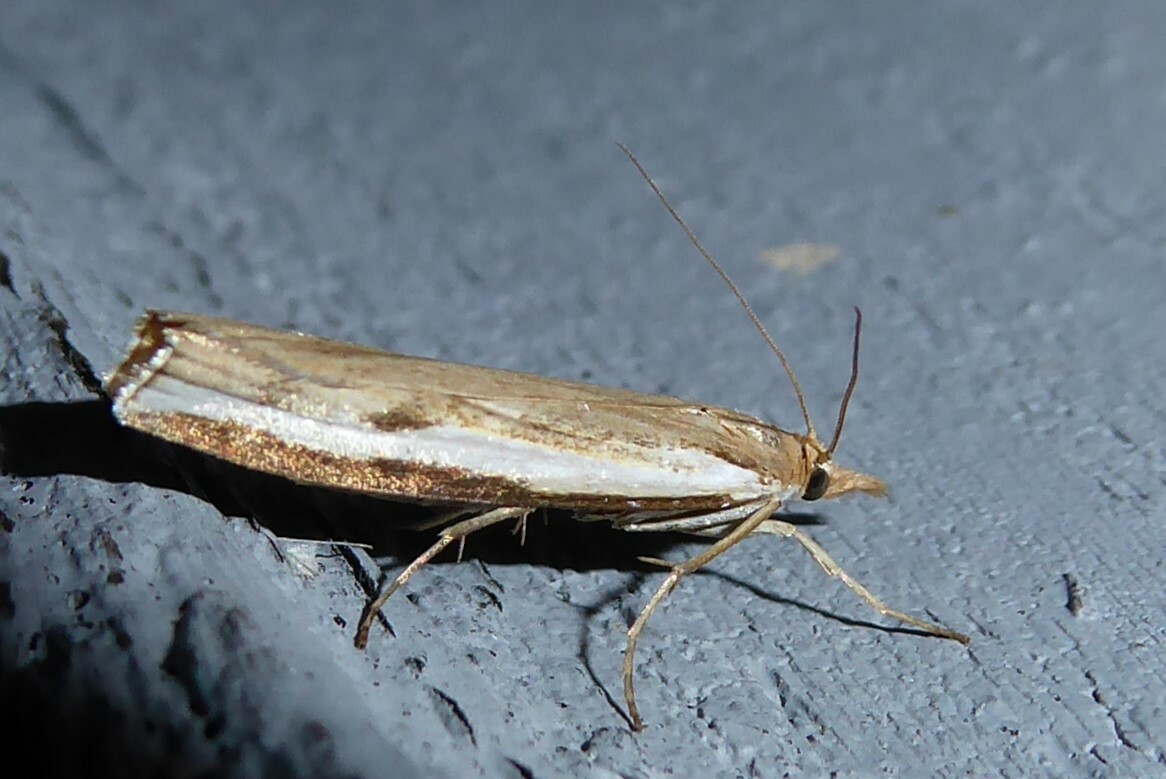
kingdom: Animalia
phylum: Arthropoda
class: Insecta
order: Lepidoptera
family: Crambidae
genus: Orocrambus
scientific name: Orocrambus flexuosellus
